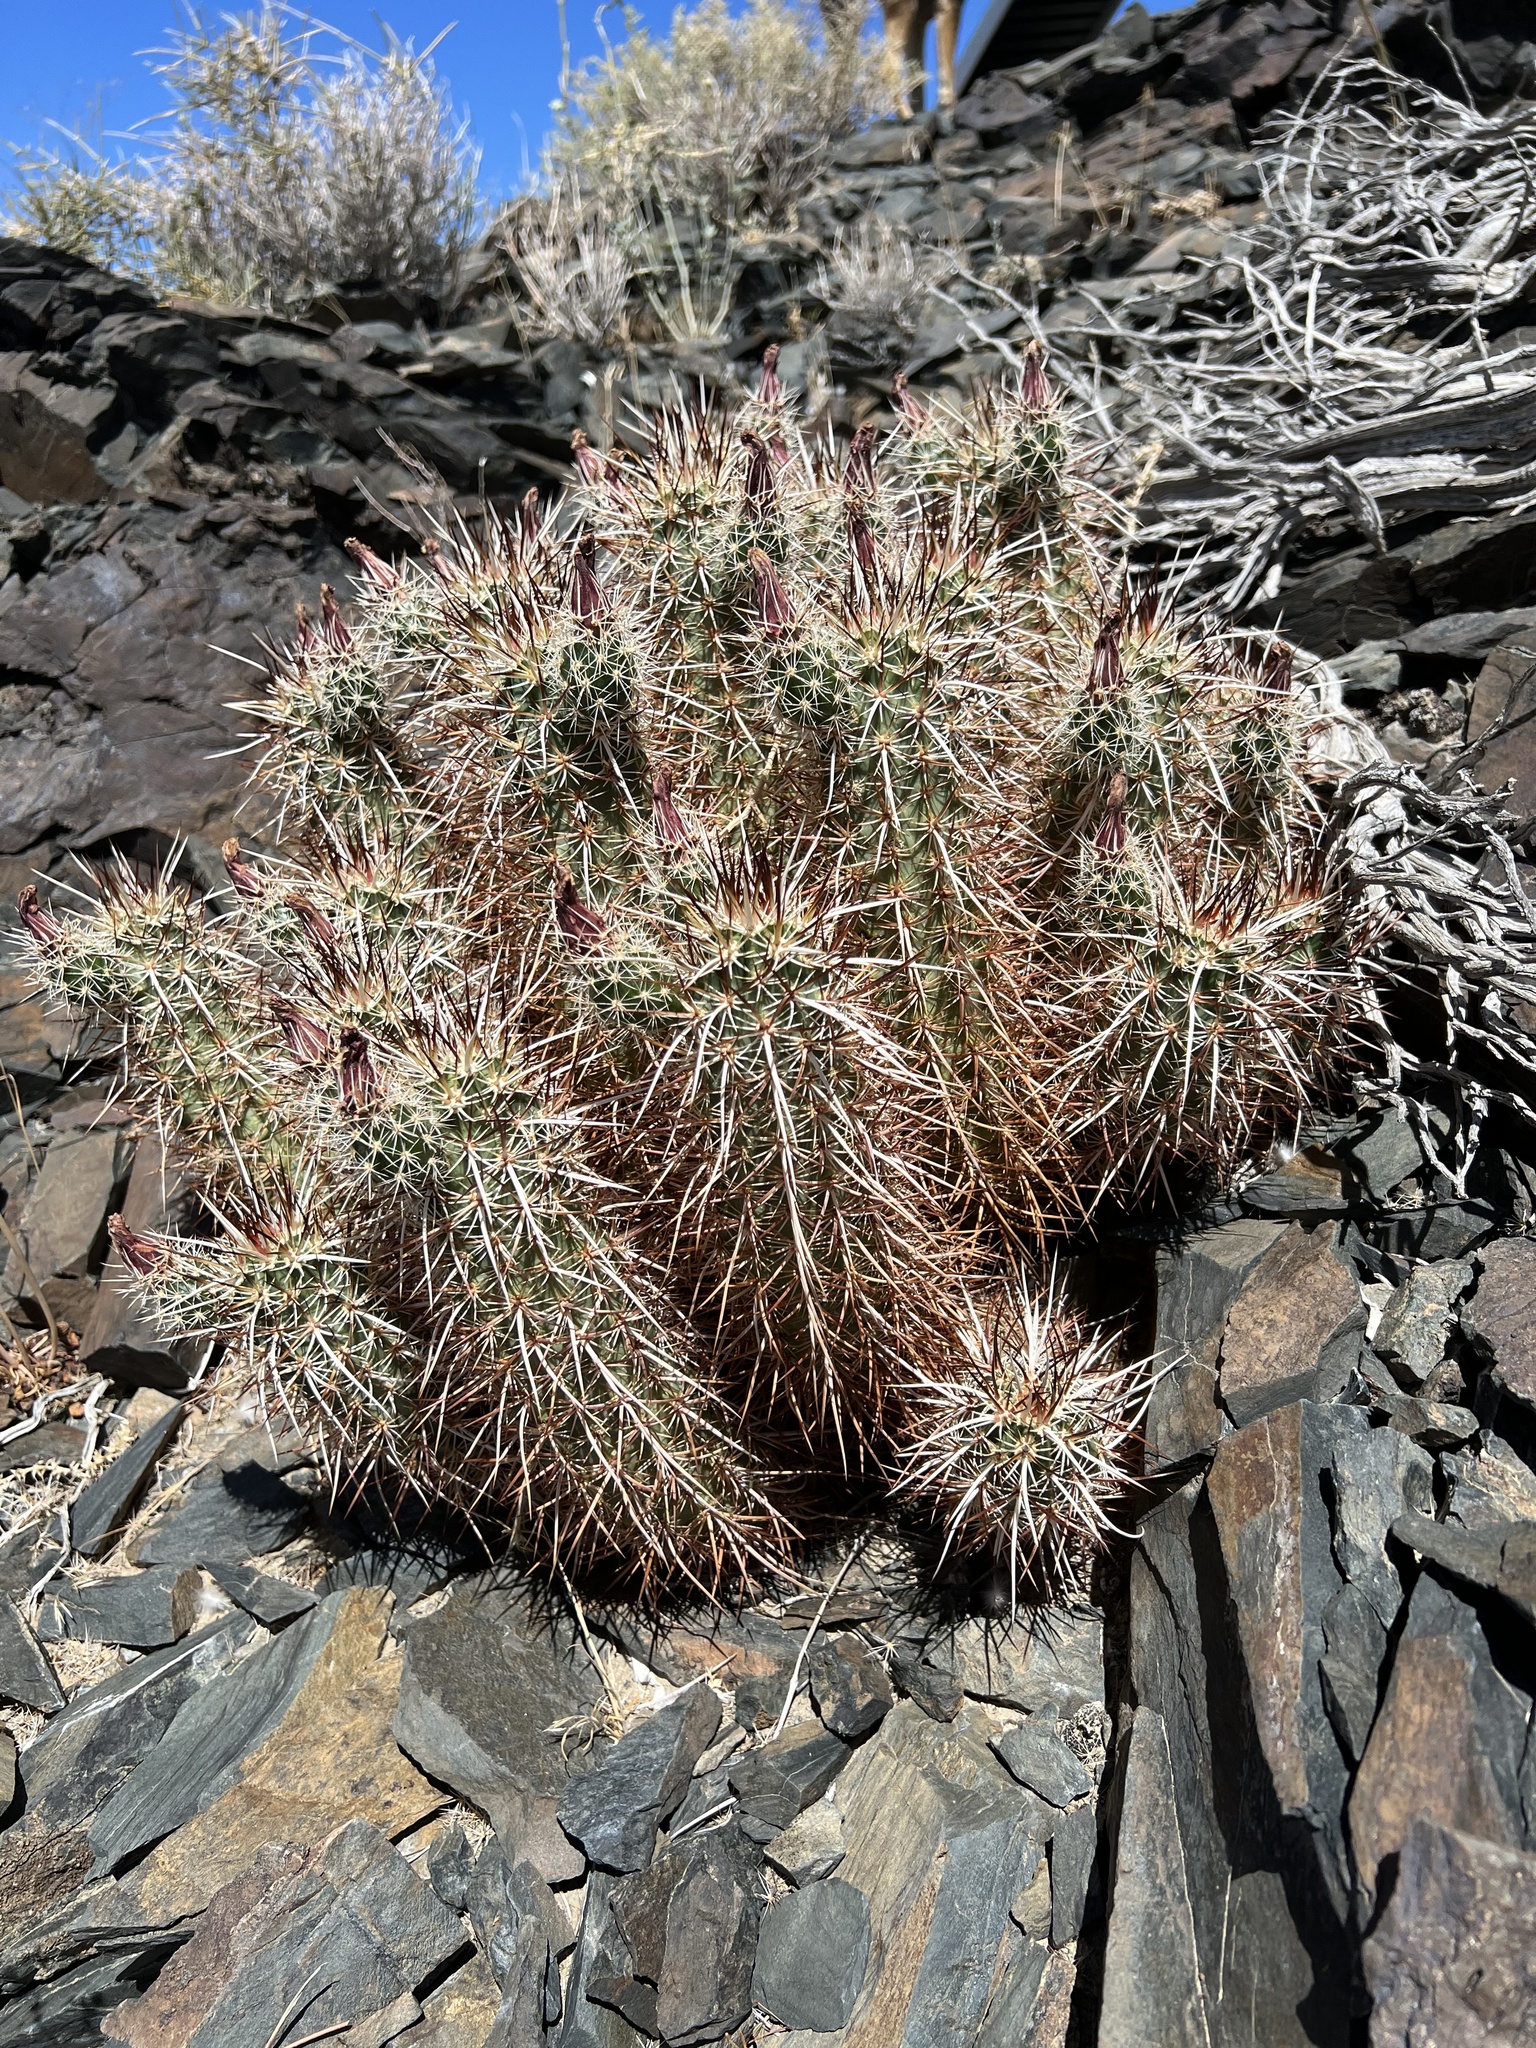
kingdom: Plantae
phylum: Tracheophyta
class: Magnoliopsida
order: Caryophyllales
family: Cactaceae
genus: Echinocereus
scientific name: Echinocereus engelmannii
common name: Engelmann's hedgehog cactus
